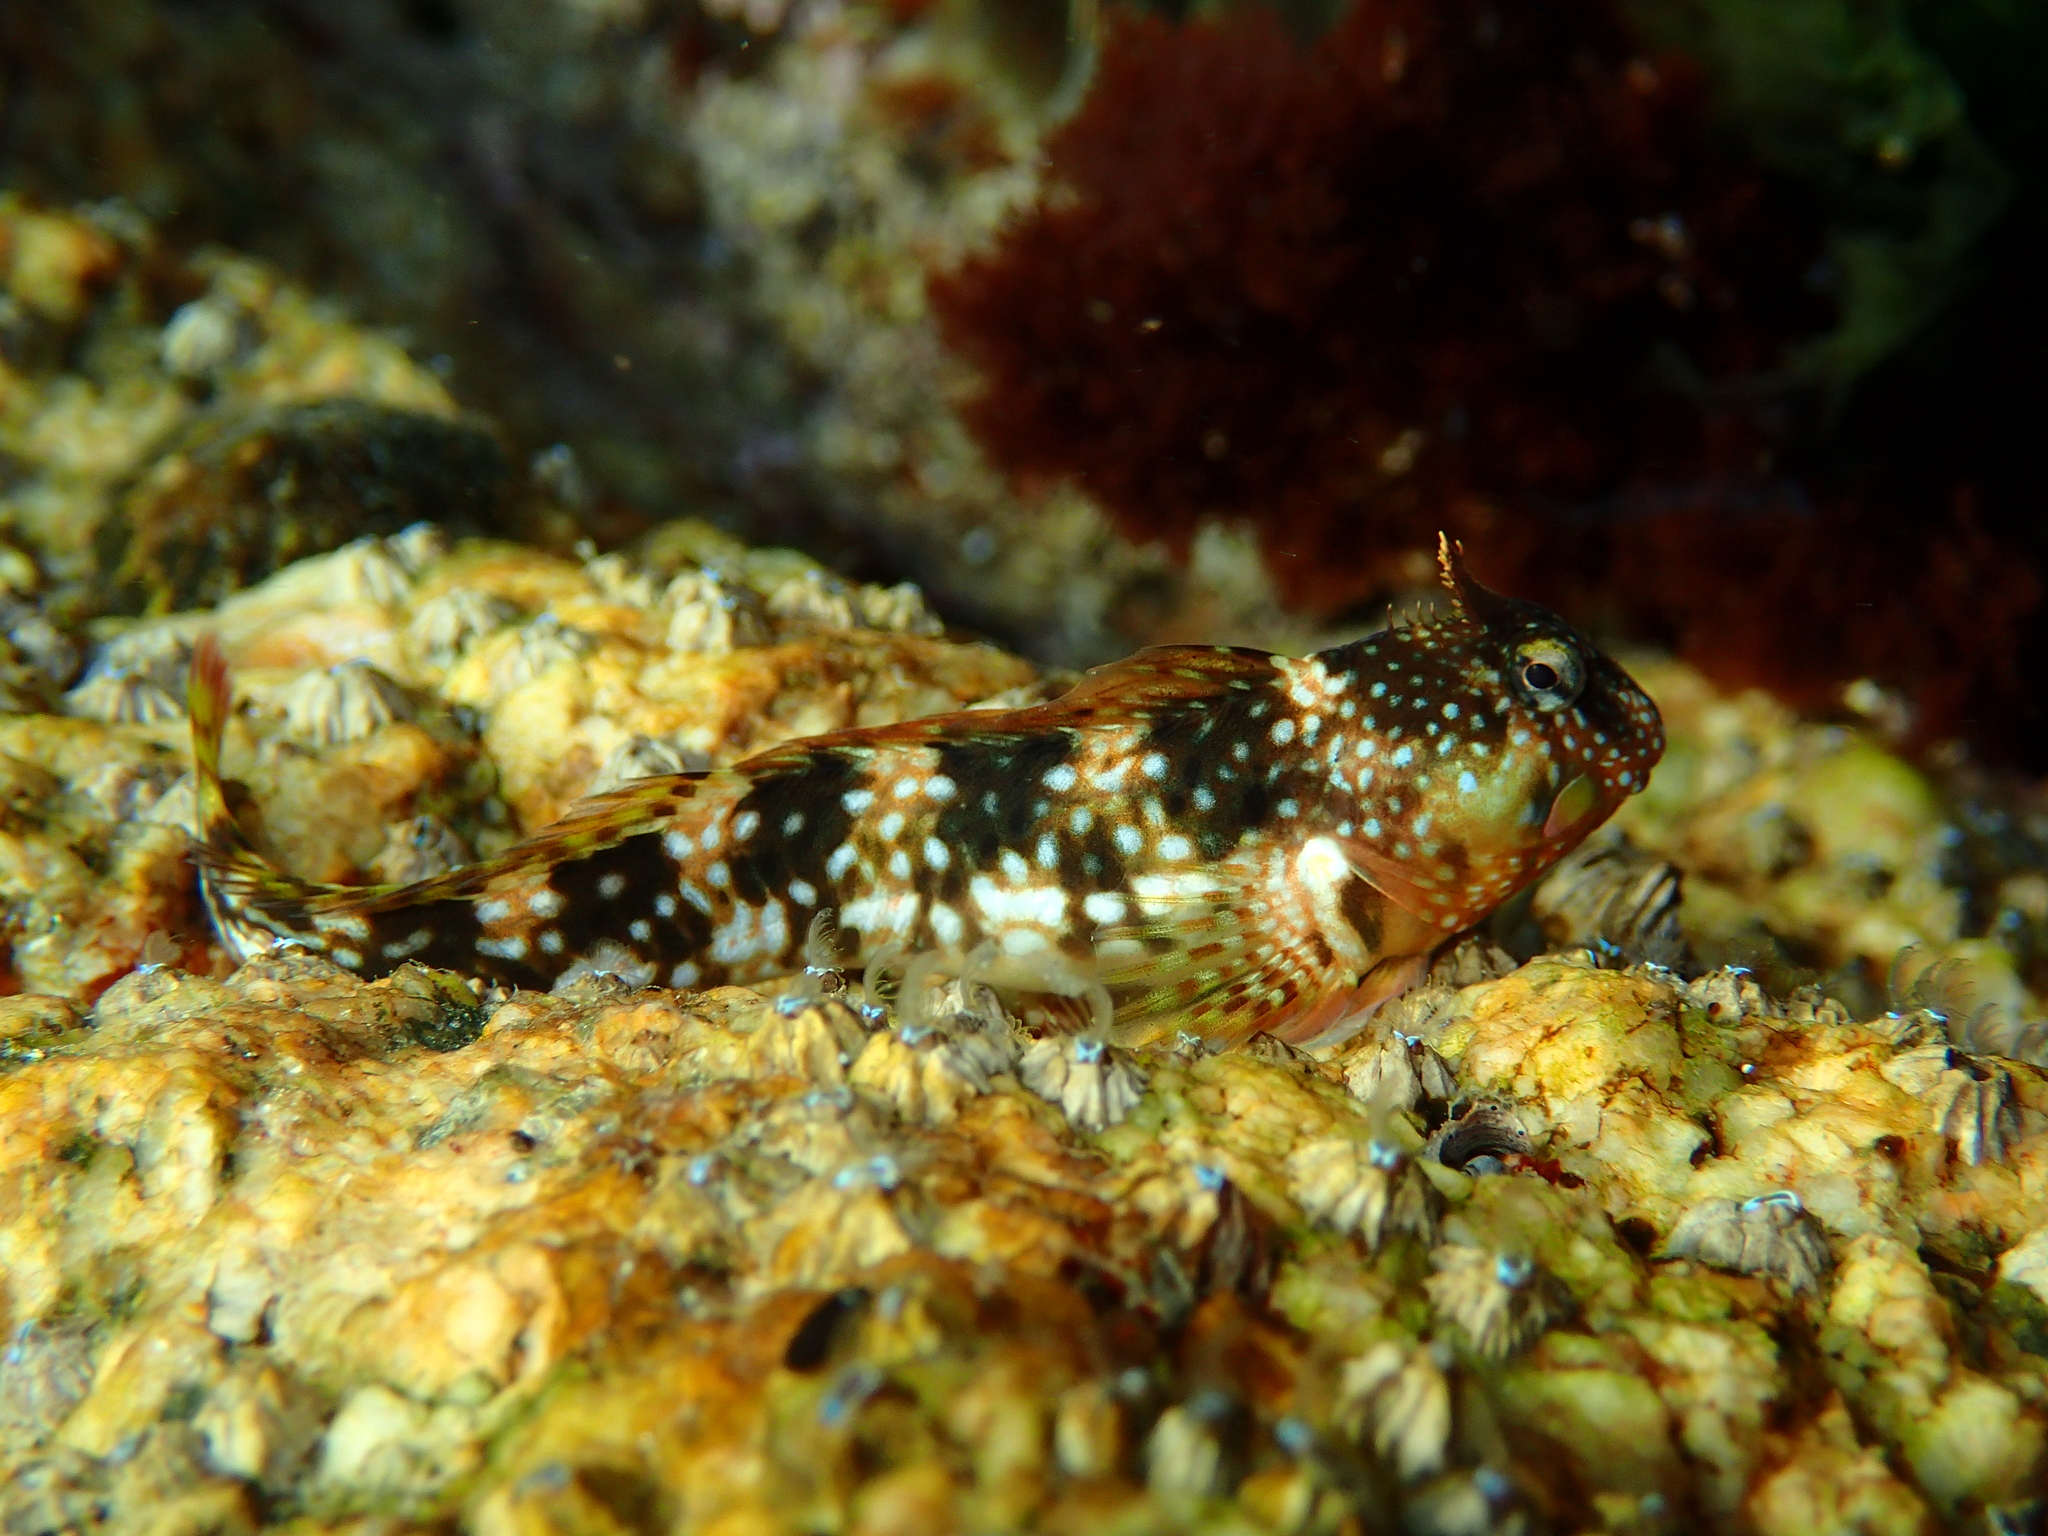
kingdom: Animalia
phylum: Chordata
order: Perciformes
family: Blenniidae
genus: Coryphoblennius
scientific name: Coryphoblennius galerita
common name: Montagu's blenny
